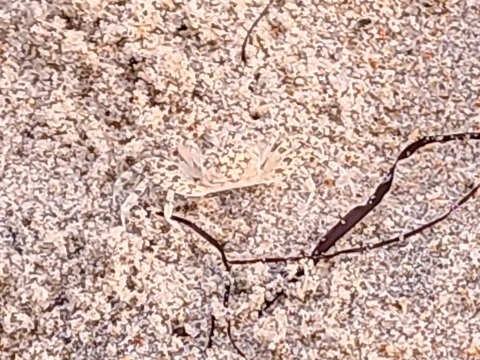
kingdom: Animalia
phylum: Arthropoda
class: Malacostraca
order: Decapoda
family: Ocypodidae
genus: Ocypode
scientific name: Ocypode quadrata
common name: Ghost crab
